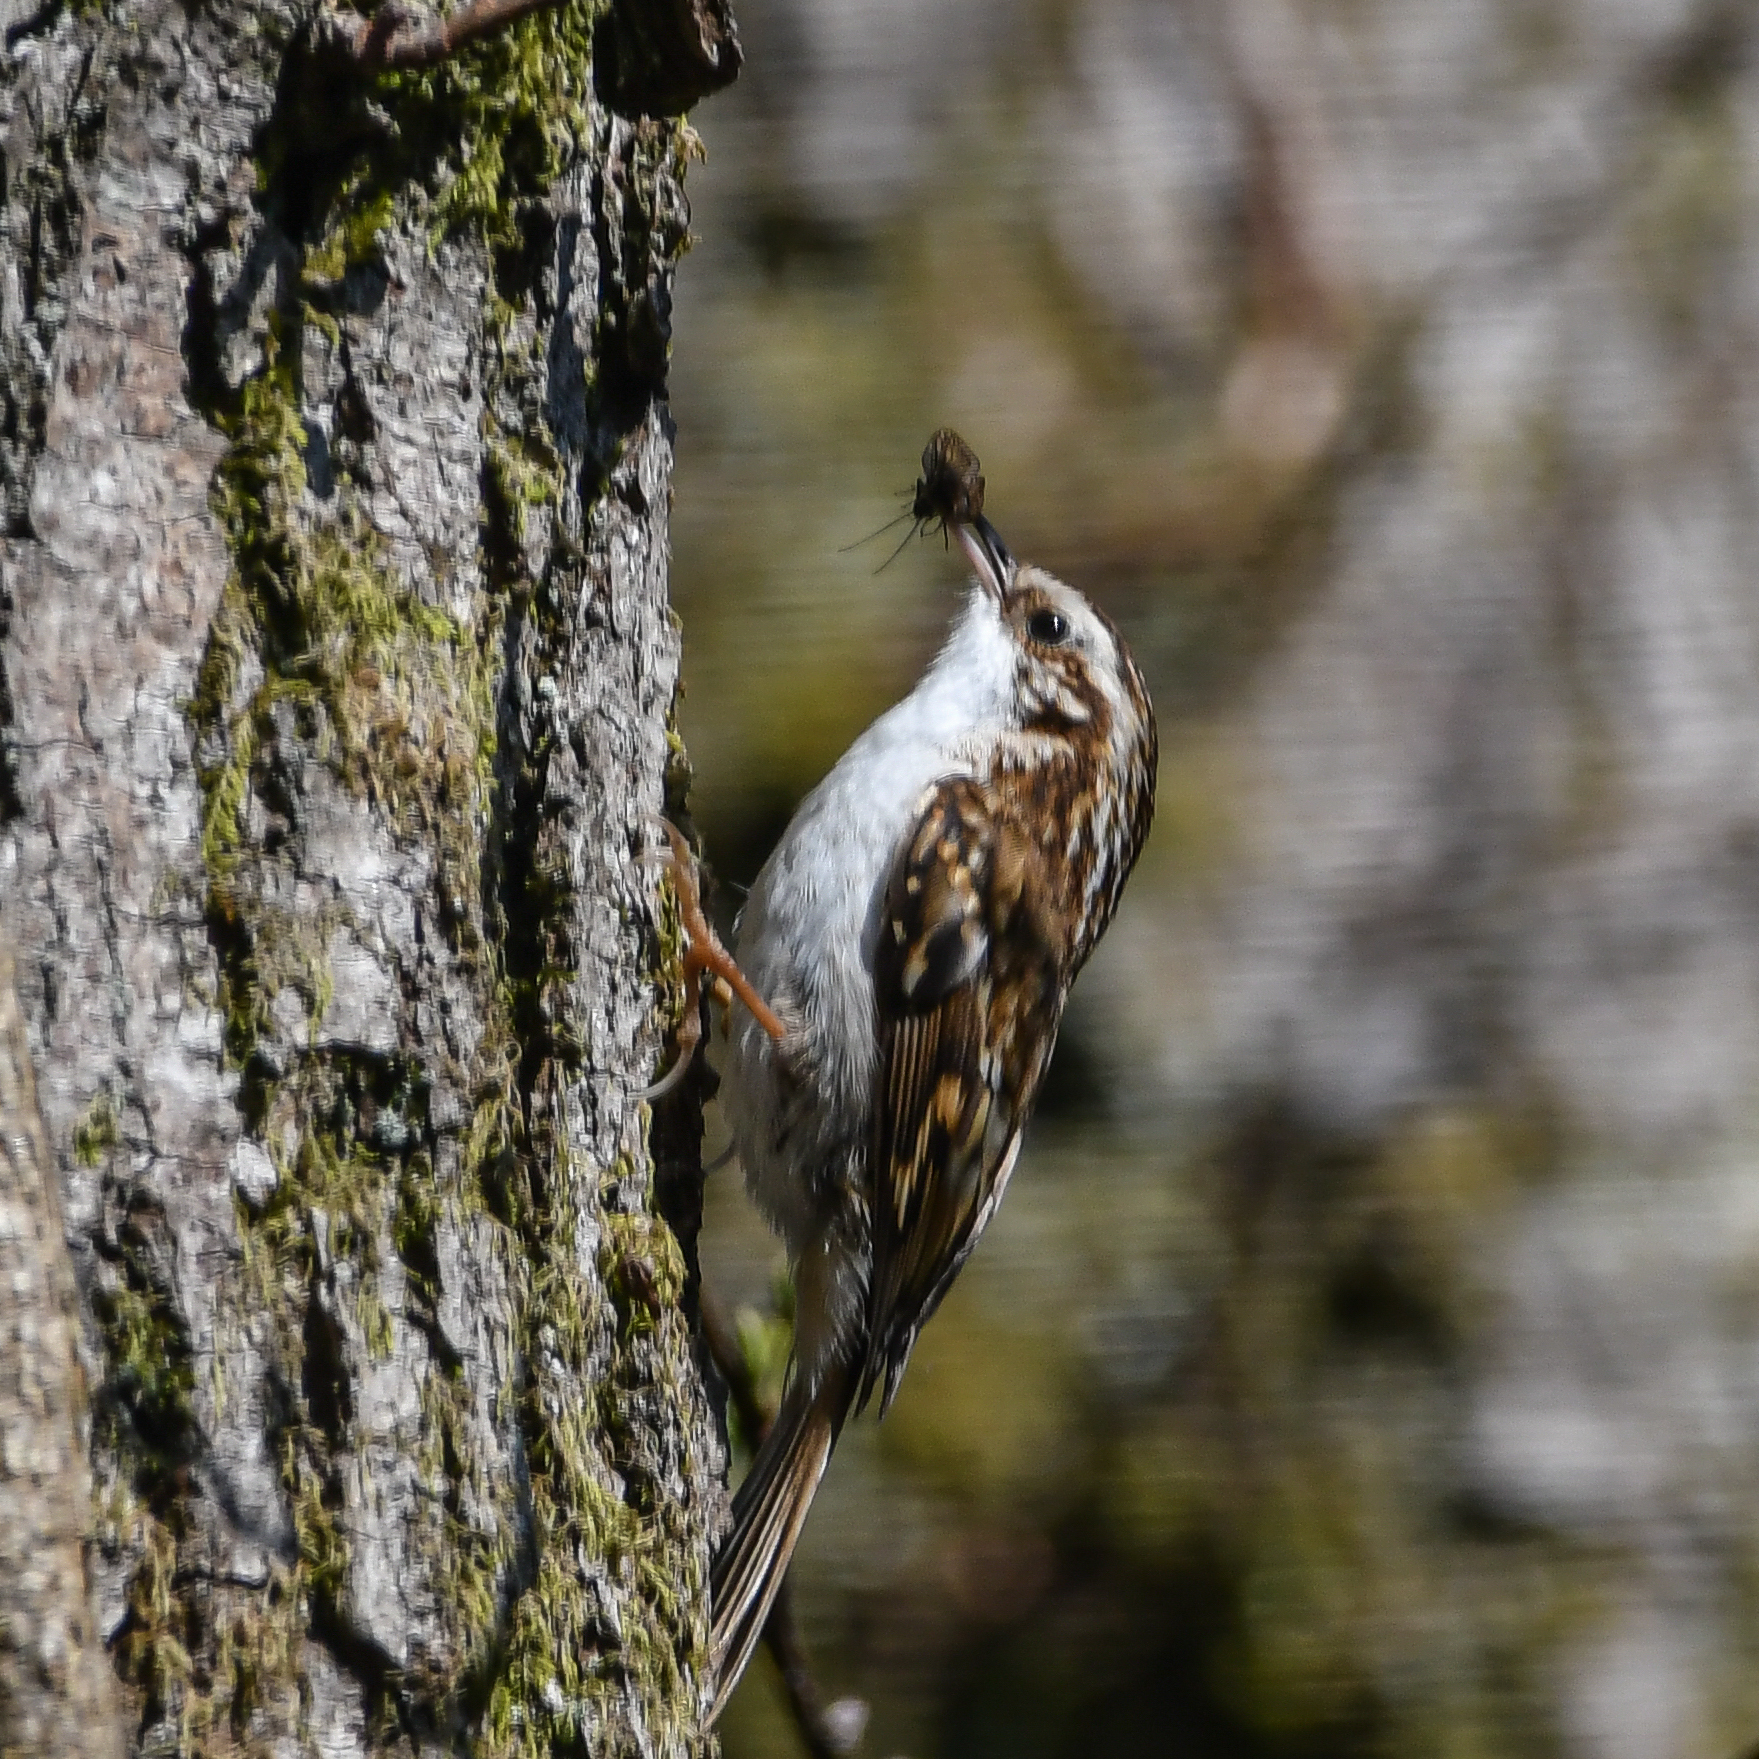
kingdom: Animalia
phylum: Chordata
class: Aves
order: Passeriformes
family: Certhiidae
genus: Certhia
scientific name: Certhia familiaris
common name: Eurasian treecreeper
